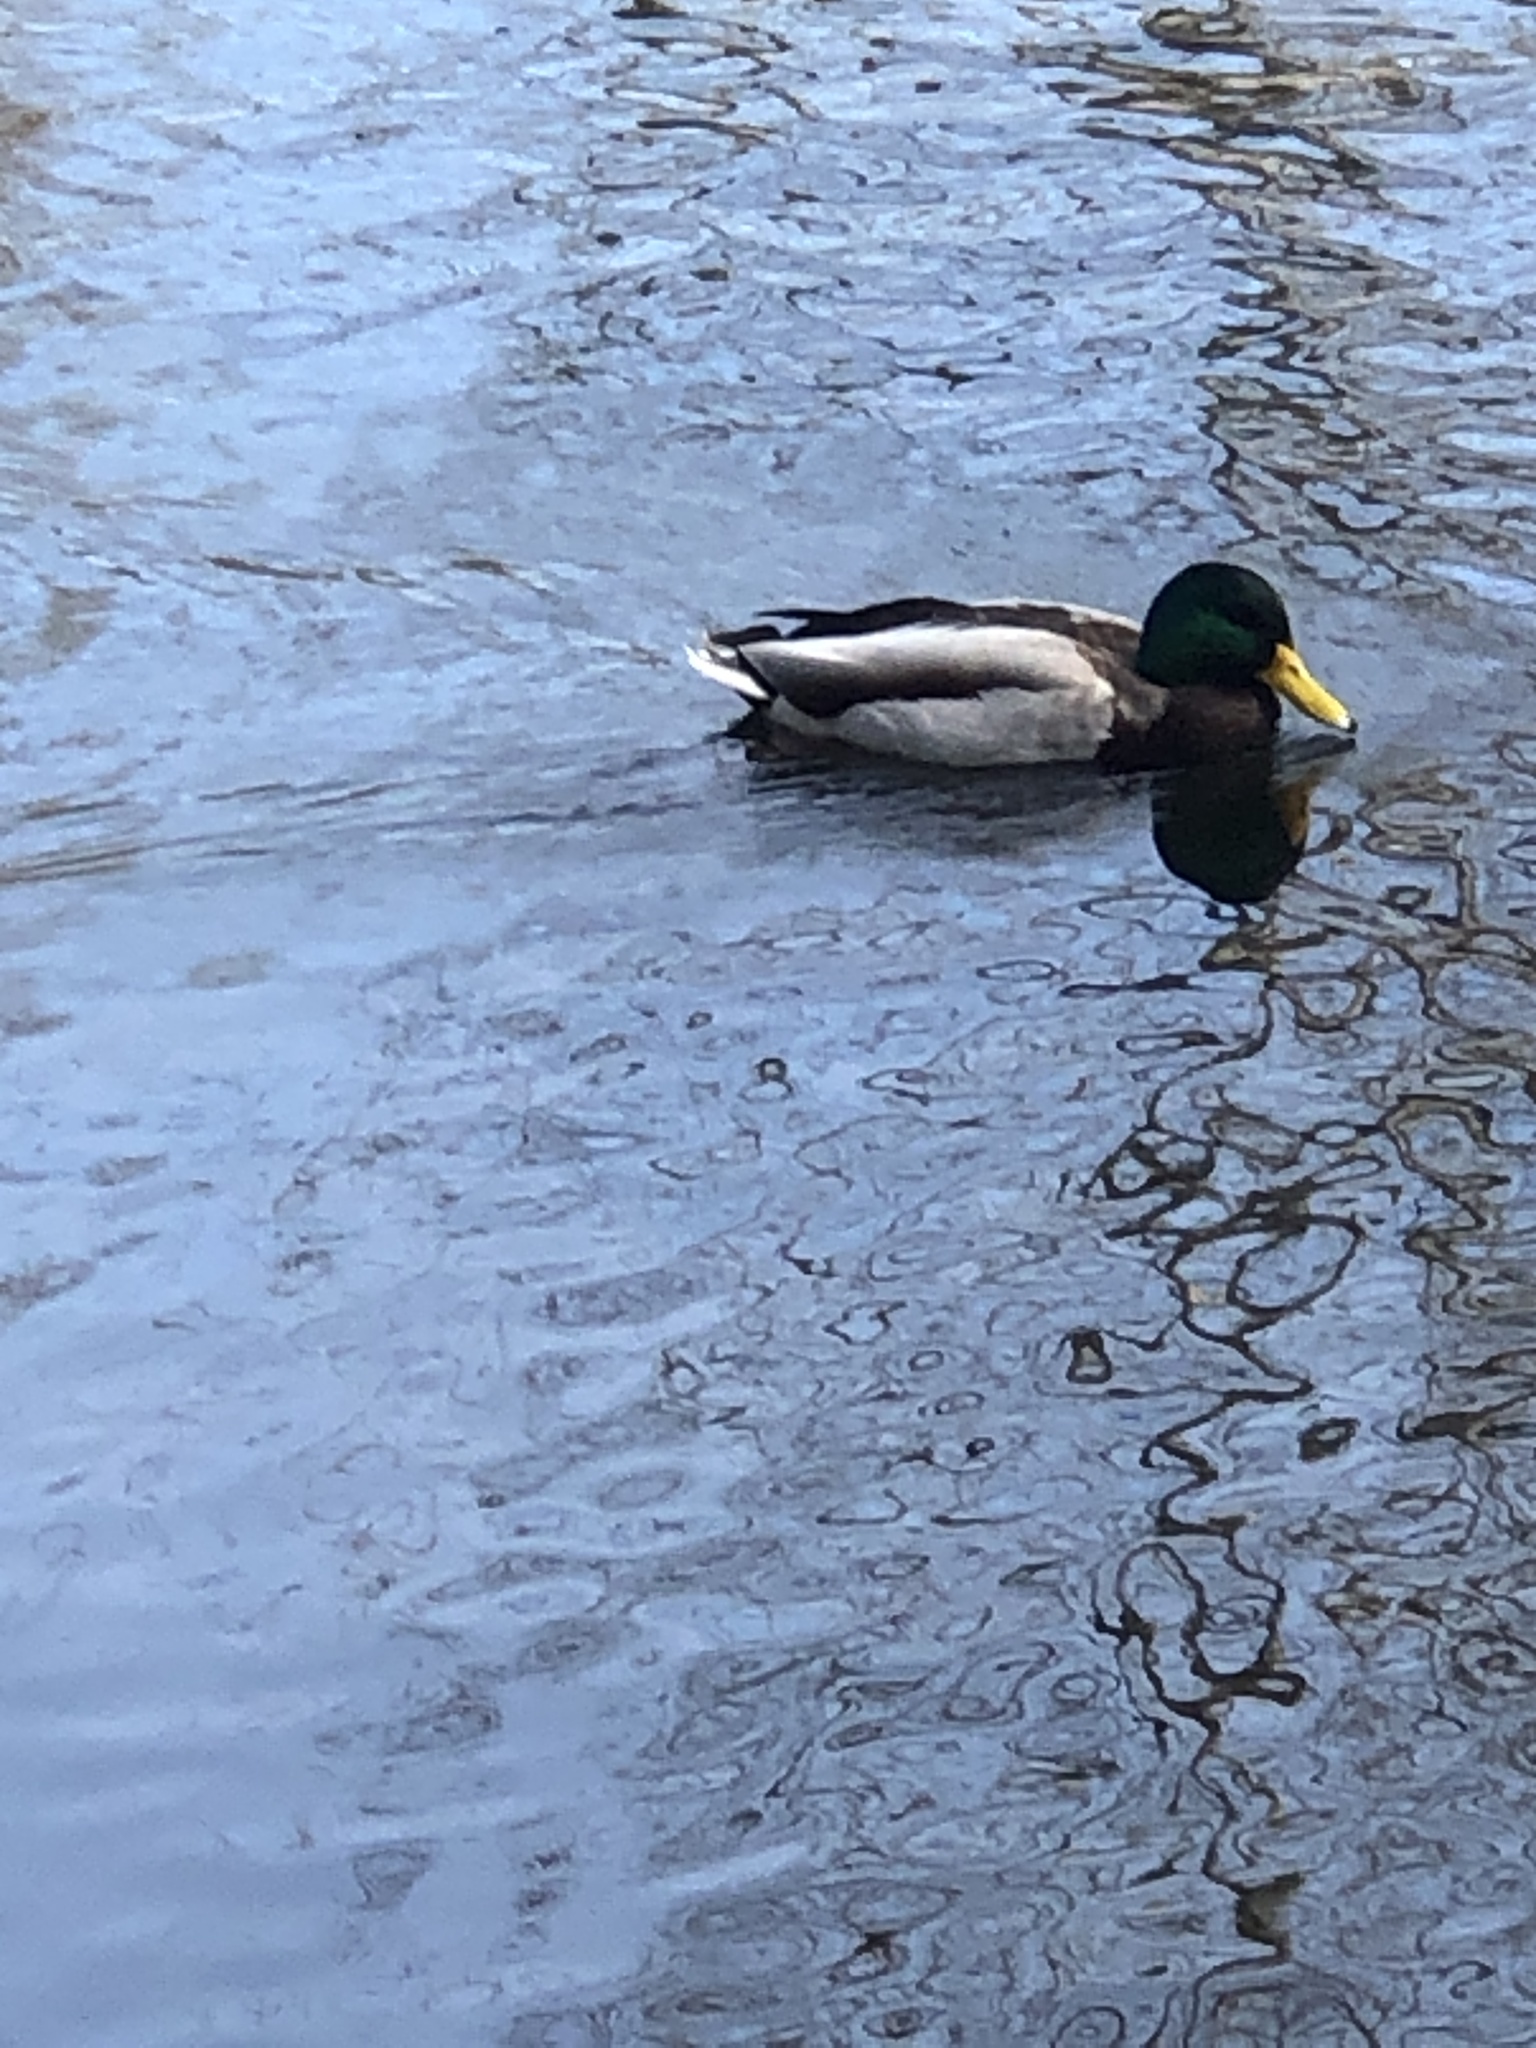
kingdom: Animalia
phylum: Chordata
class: Aves
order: Anseriformes
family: Anatidae
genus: Anas
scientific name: Anas platyrhynchos
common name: Mallard
